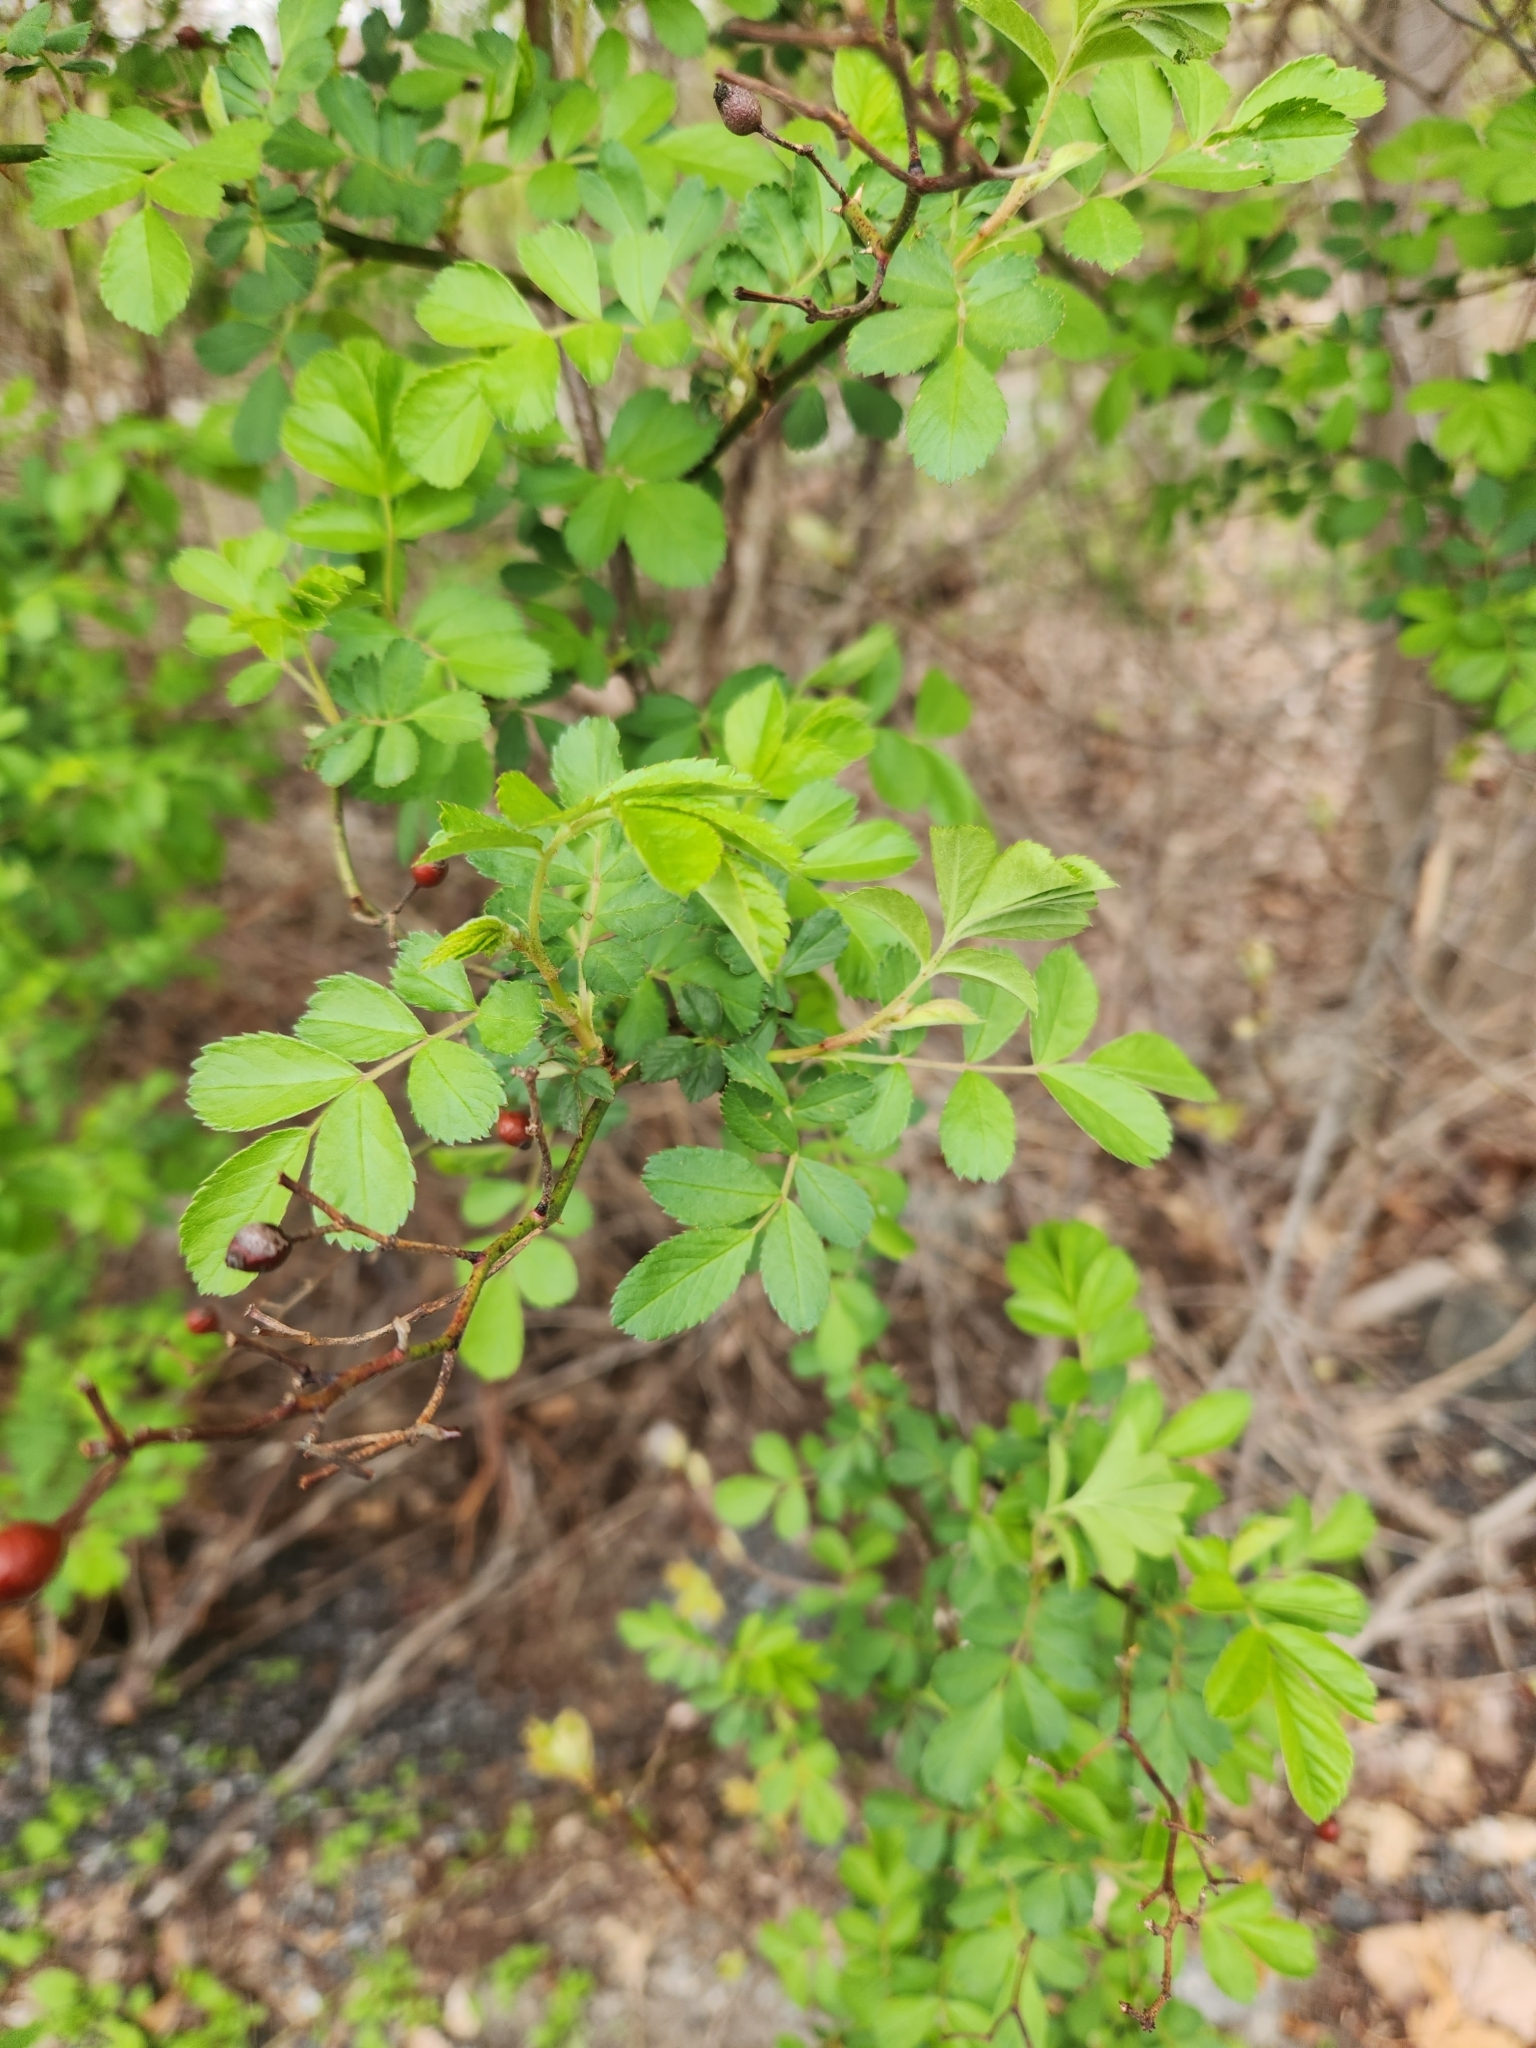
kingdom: Plantae
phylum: Tracheophyta
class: Magnoliopsida
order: Rosales
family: Rosaceae
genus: Rosa
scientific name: Rosa multiflora
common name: Multiflora rose
